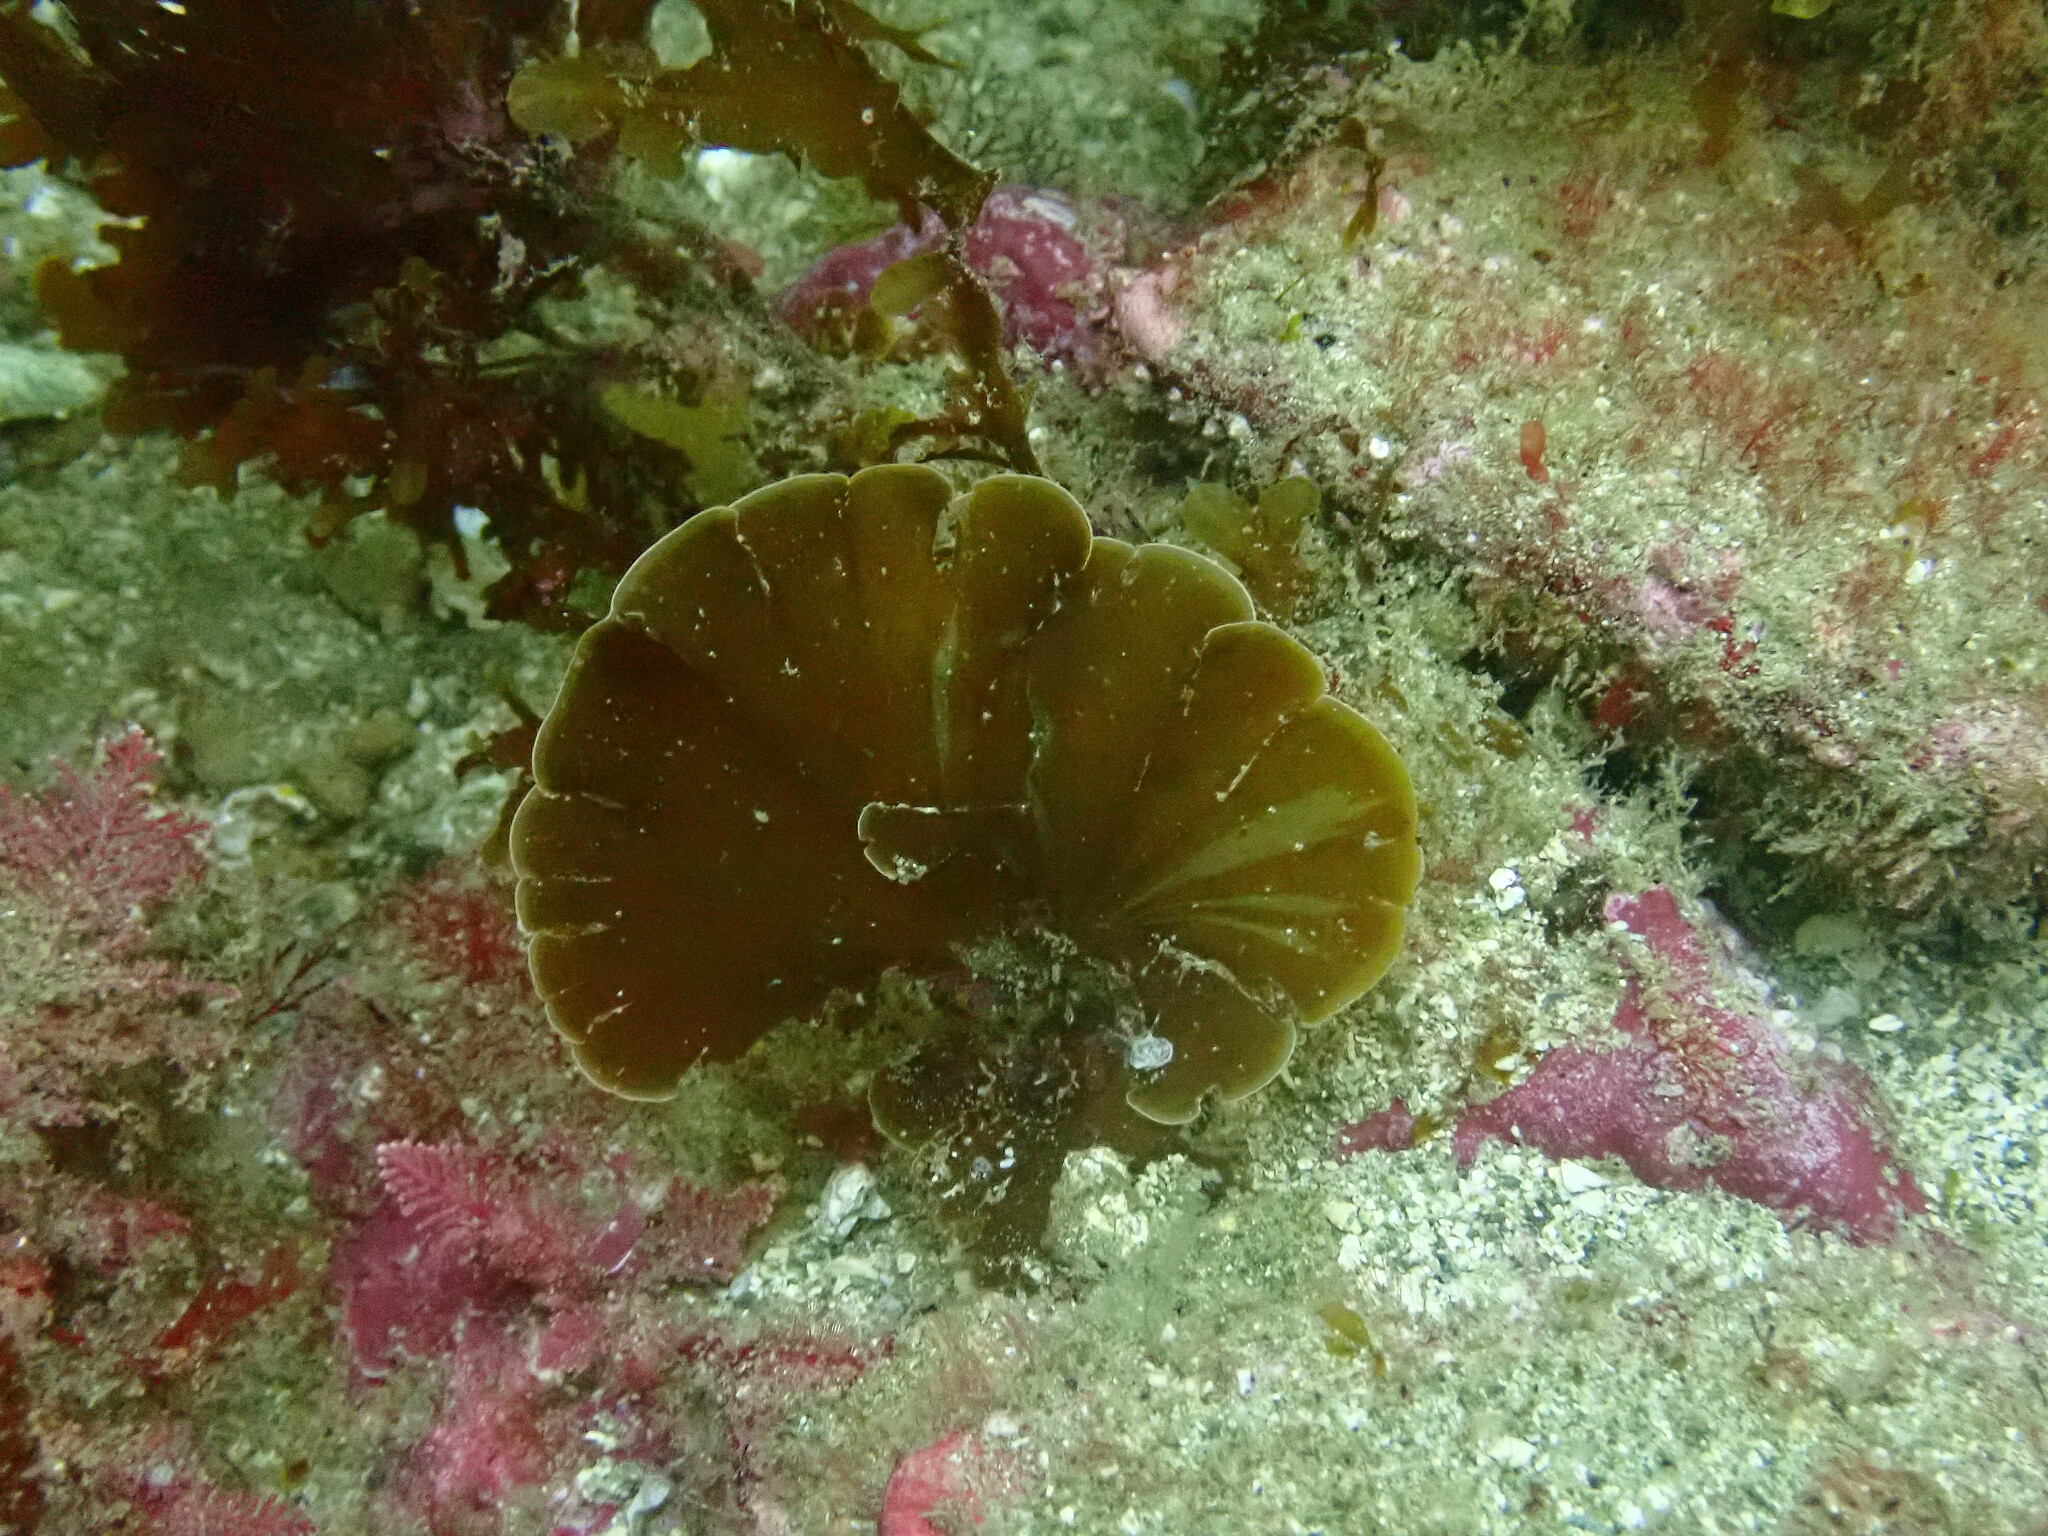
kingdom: Chromista
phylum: Ochrophyta
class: Phaeophyceae
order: Dictyotales
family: Dictyotaceae
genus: Zonaria
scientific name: Zonaria farlowii
